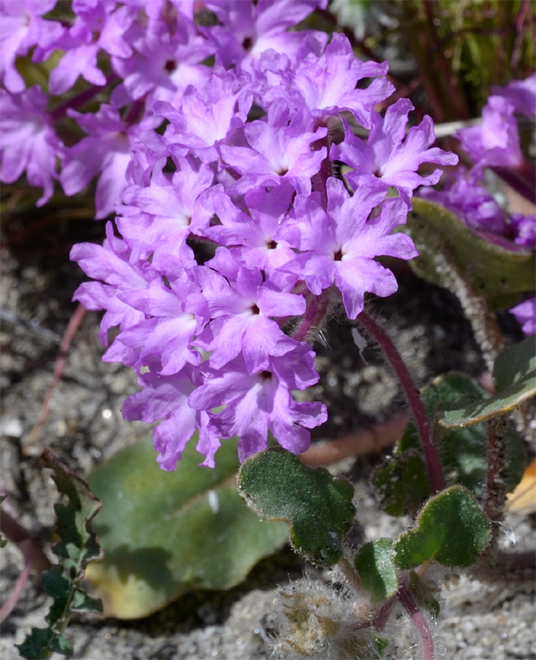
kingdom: Plantae
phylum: Tracheophyta
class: Magnoliopsida
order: Caryophyllales
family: Nyctaginaceae
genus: Abronia
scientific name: Abronia villosa
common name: Desert sand-verbena
